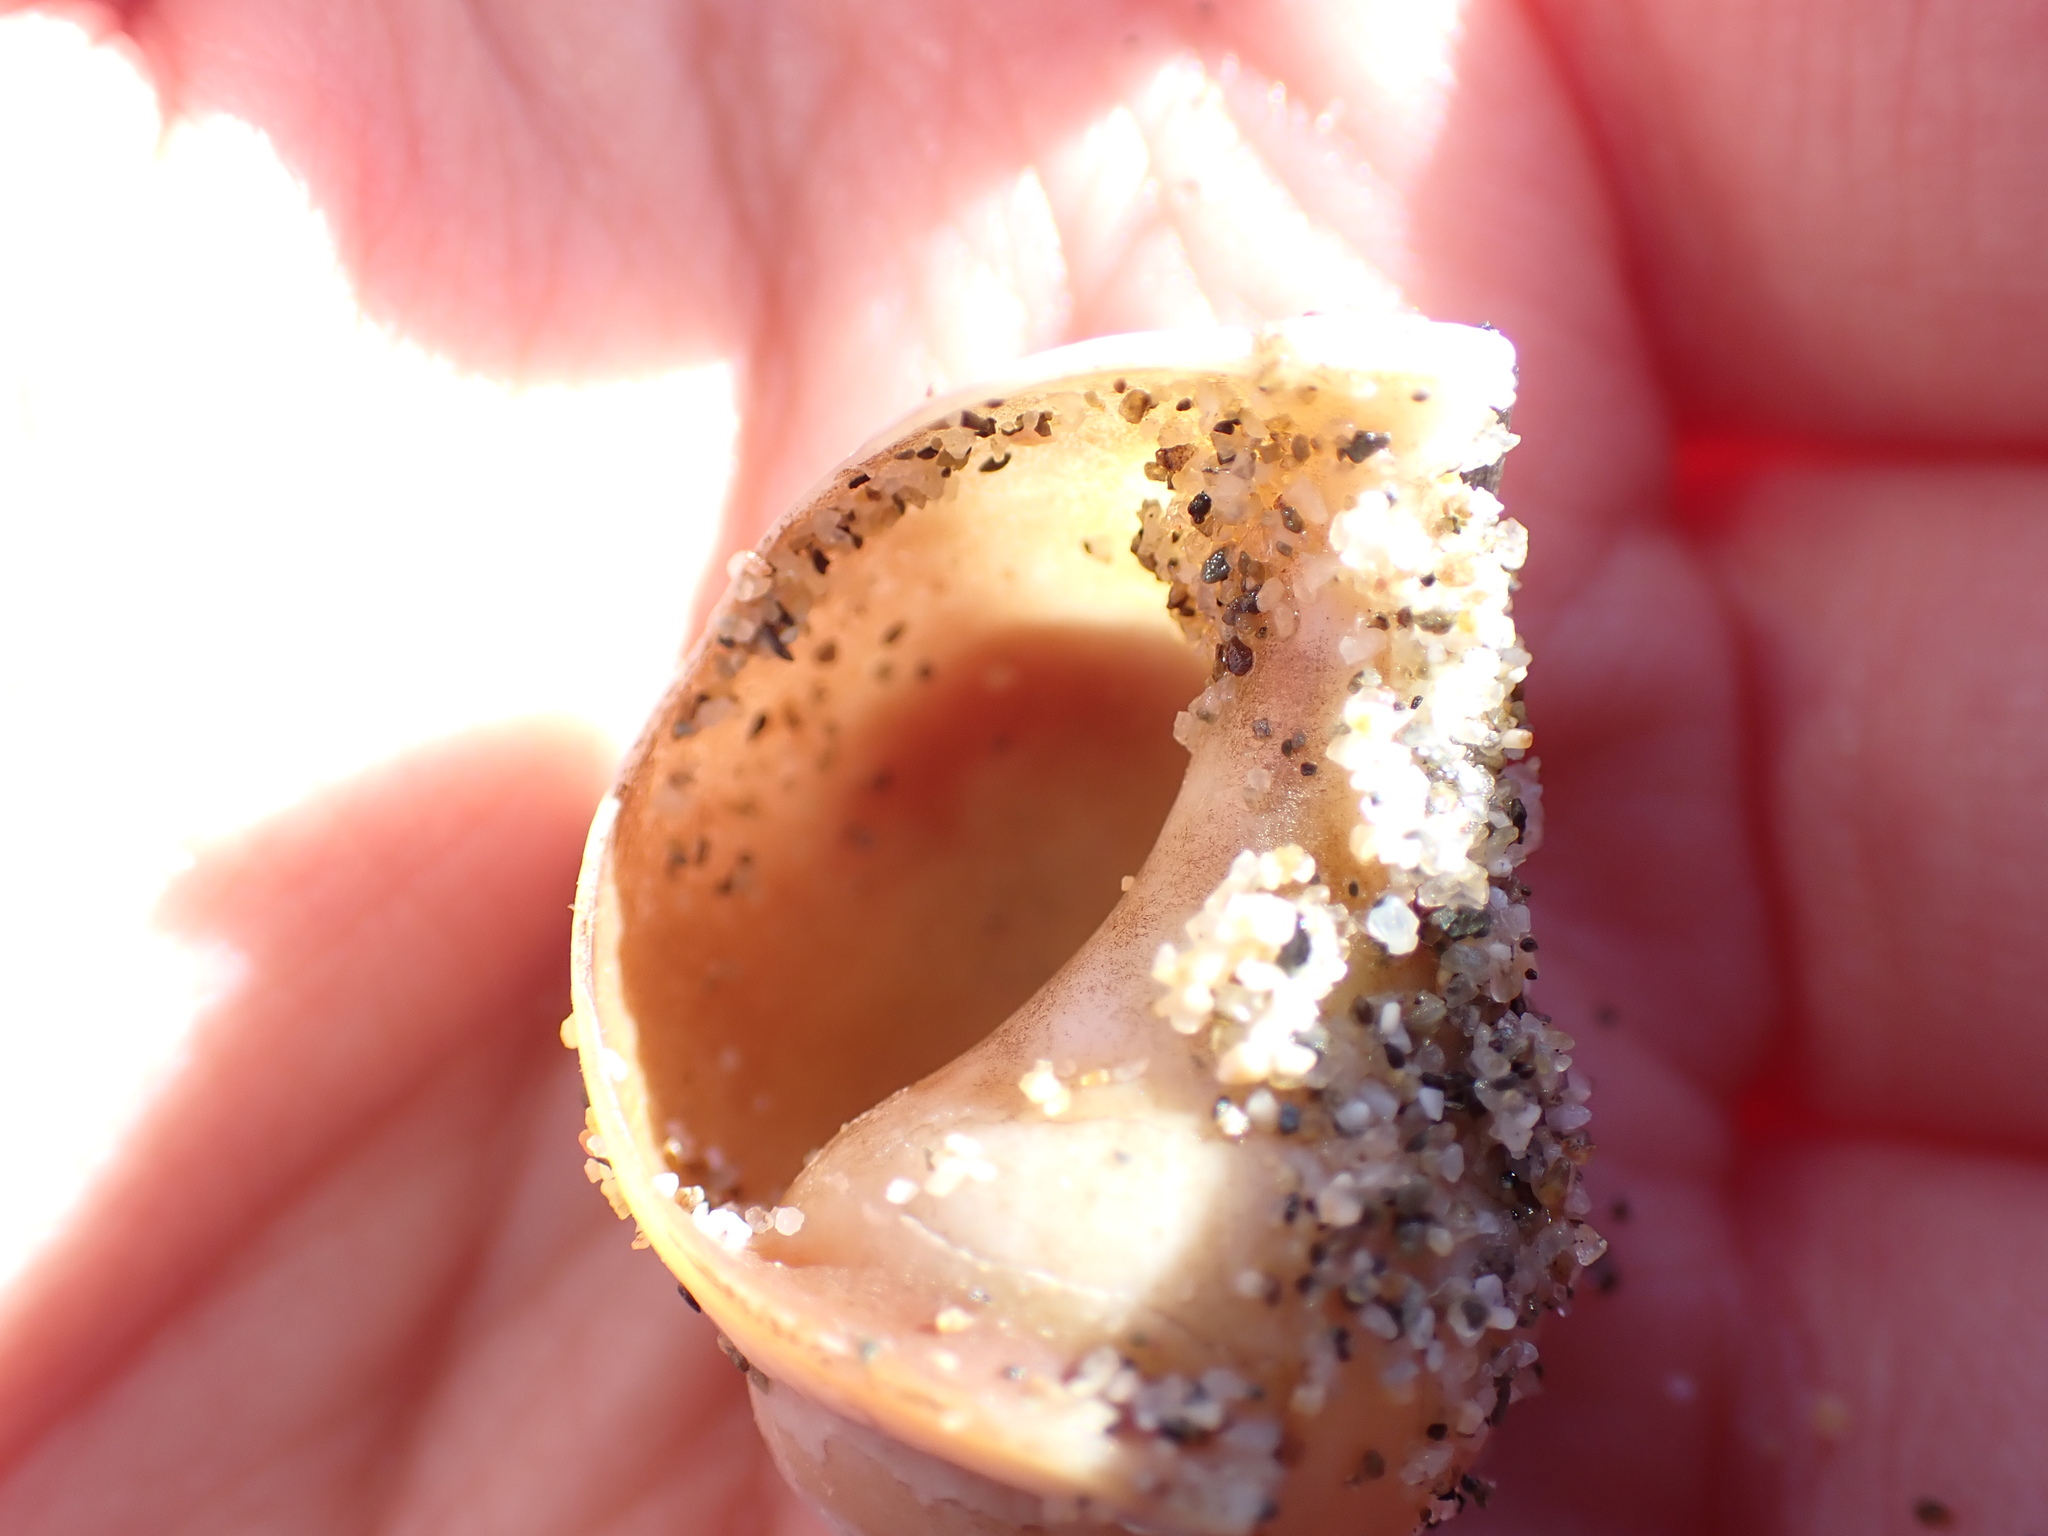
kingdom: Animalia
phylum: Mollusca
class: Gastropoda
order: Littorinimorpha
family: Naticidae
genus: Euspira
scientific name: Euspira catena
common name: Necklace shell
